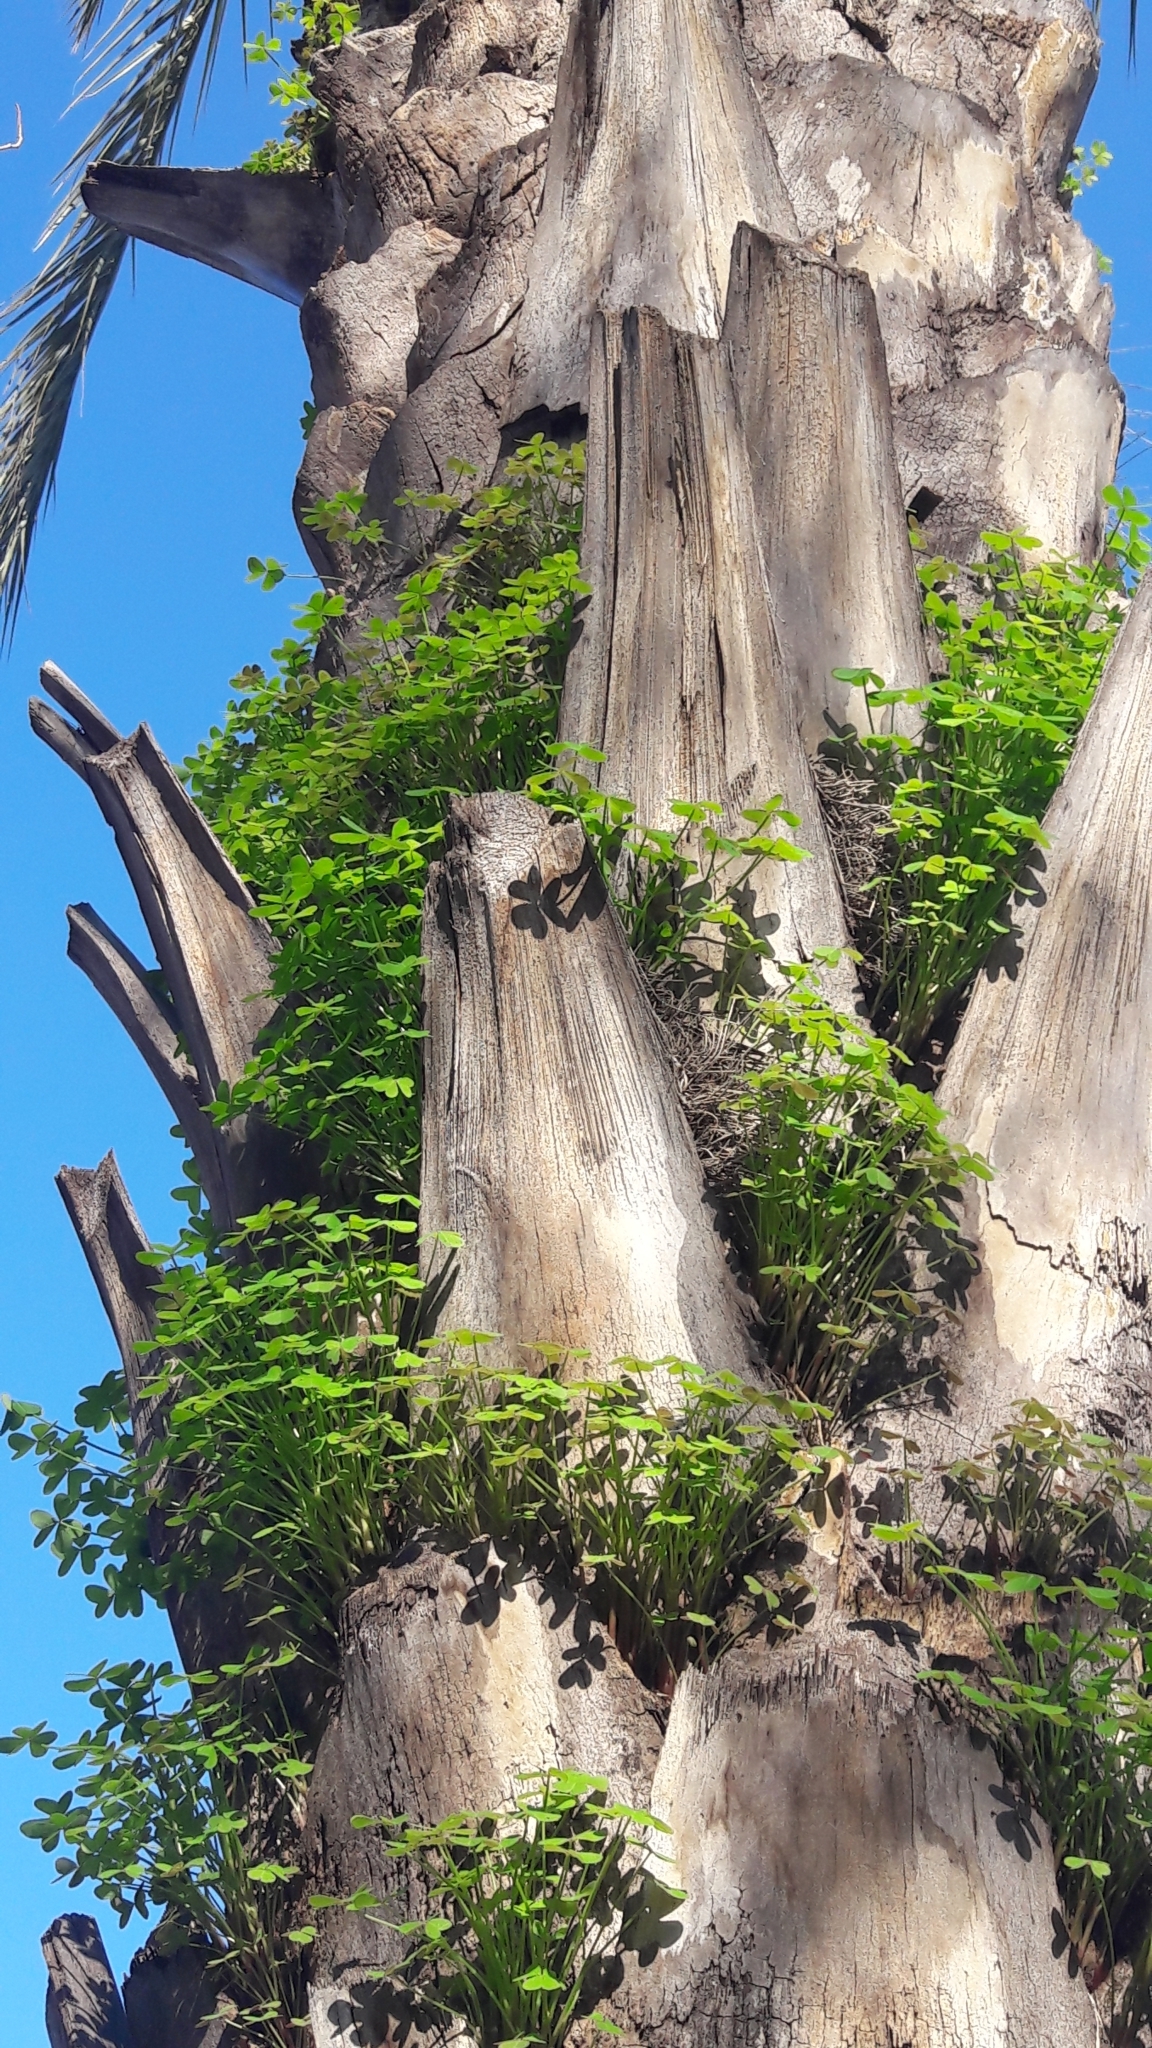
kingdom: Plantae
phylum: Tracheophyta
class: Magnoliopsida
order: Oxalidales
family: Oxalidaceae
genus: Oxalis
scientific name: Oxalis pes-caprae
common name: Bermuda-buttercup
